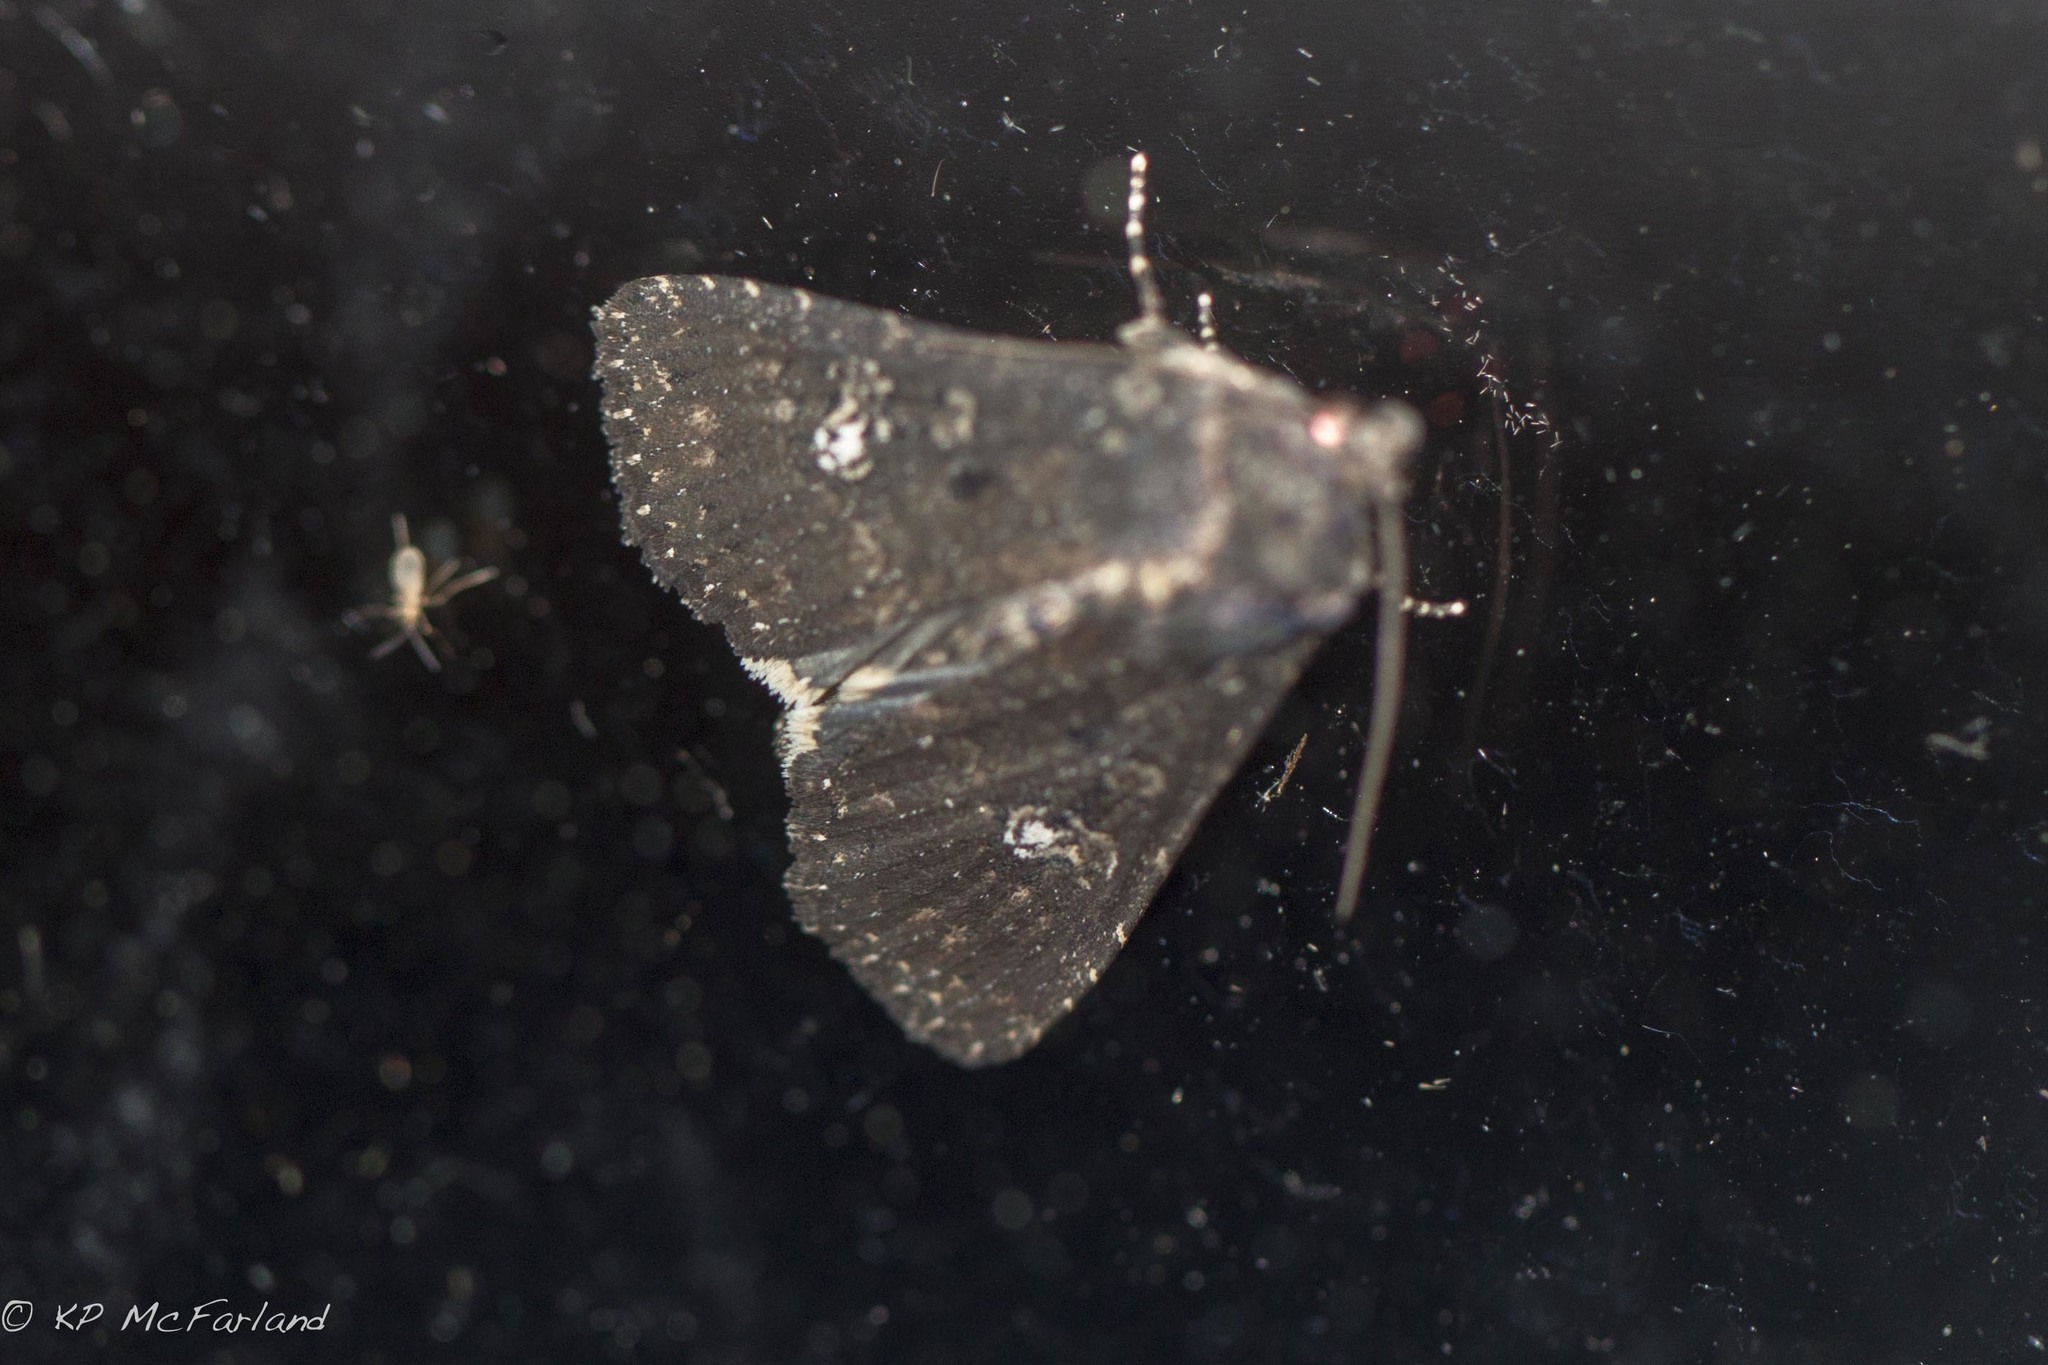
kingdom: Animalia
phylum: Arthropoda
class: Insecta
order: Lepidoptera
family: Noctuidae
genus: Condica
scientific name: Condica vecors
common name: Dusky groundling
